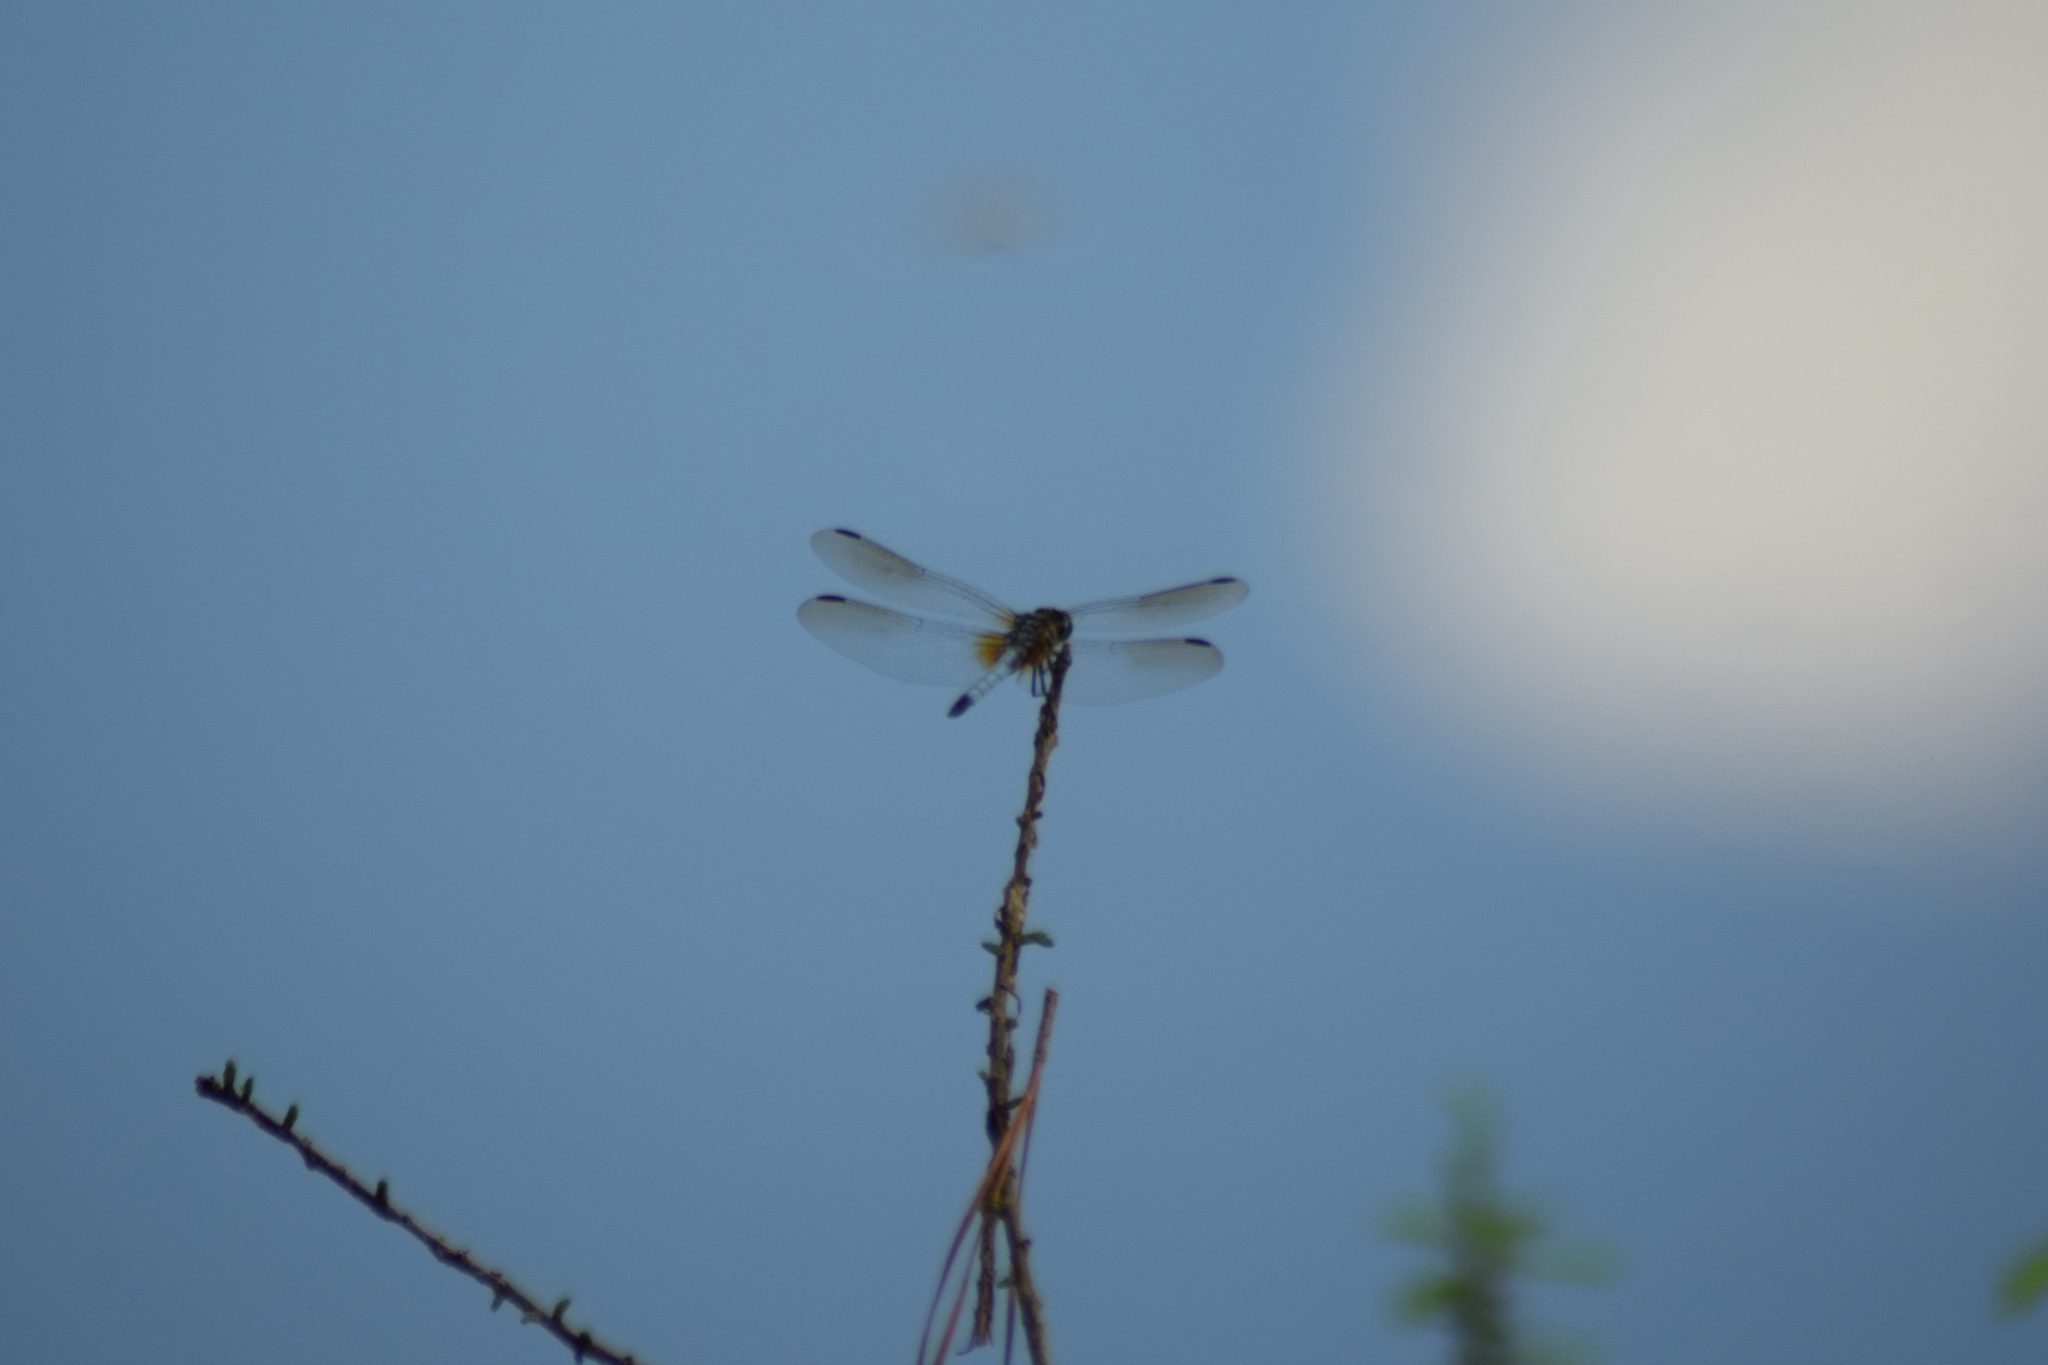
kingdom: Animalia
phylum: Arthropoda
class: Insecta
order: Odonata
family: Libellulidae
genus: Pachydiplax
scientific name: Pachydiplax longipennis
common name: Blue dasher
